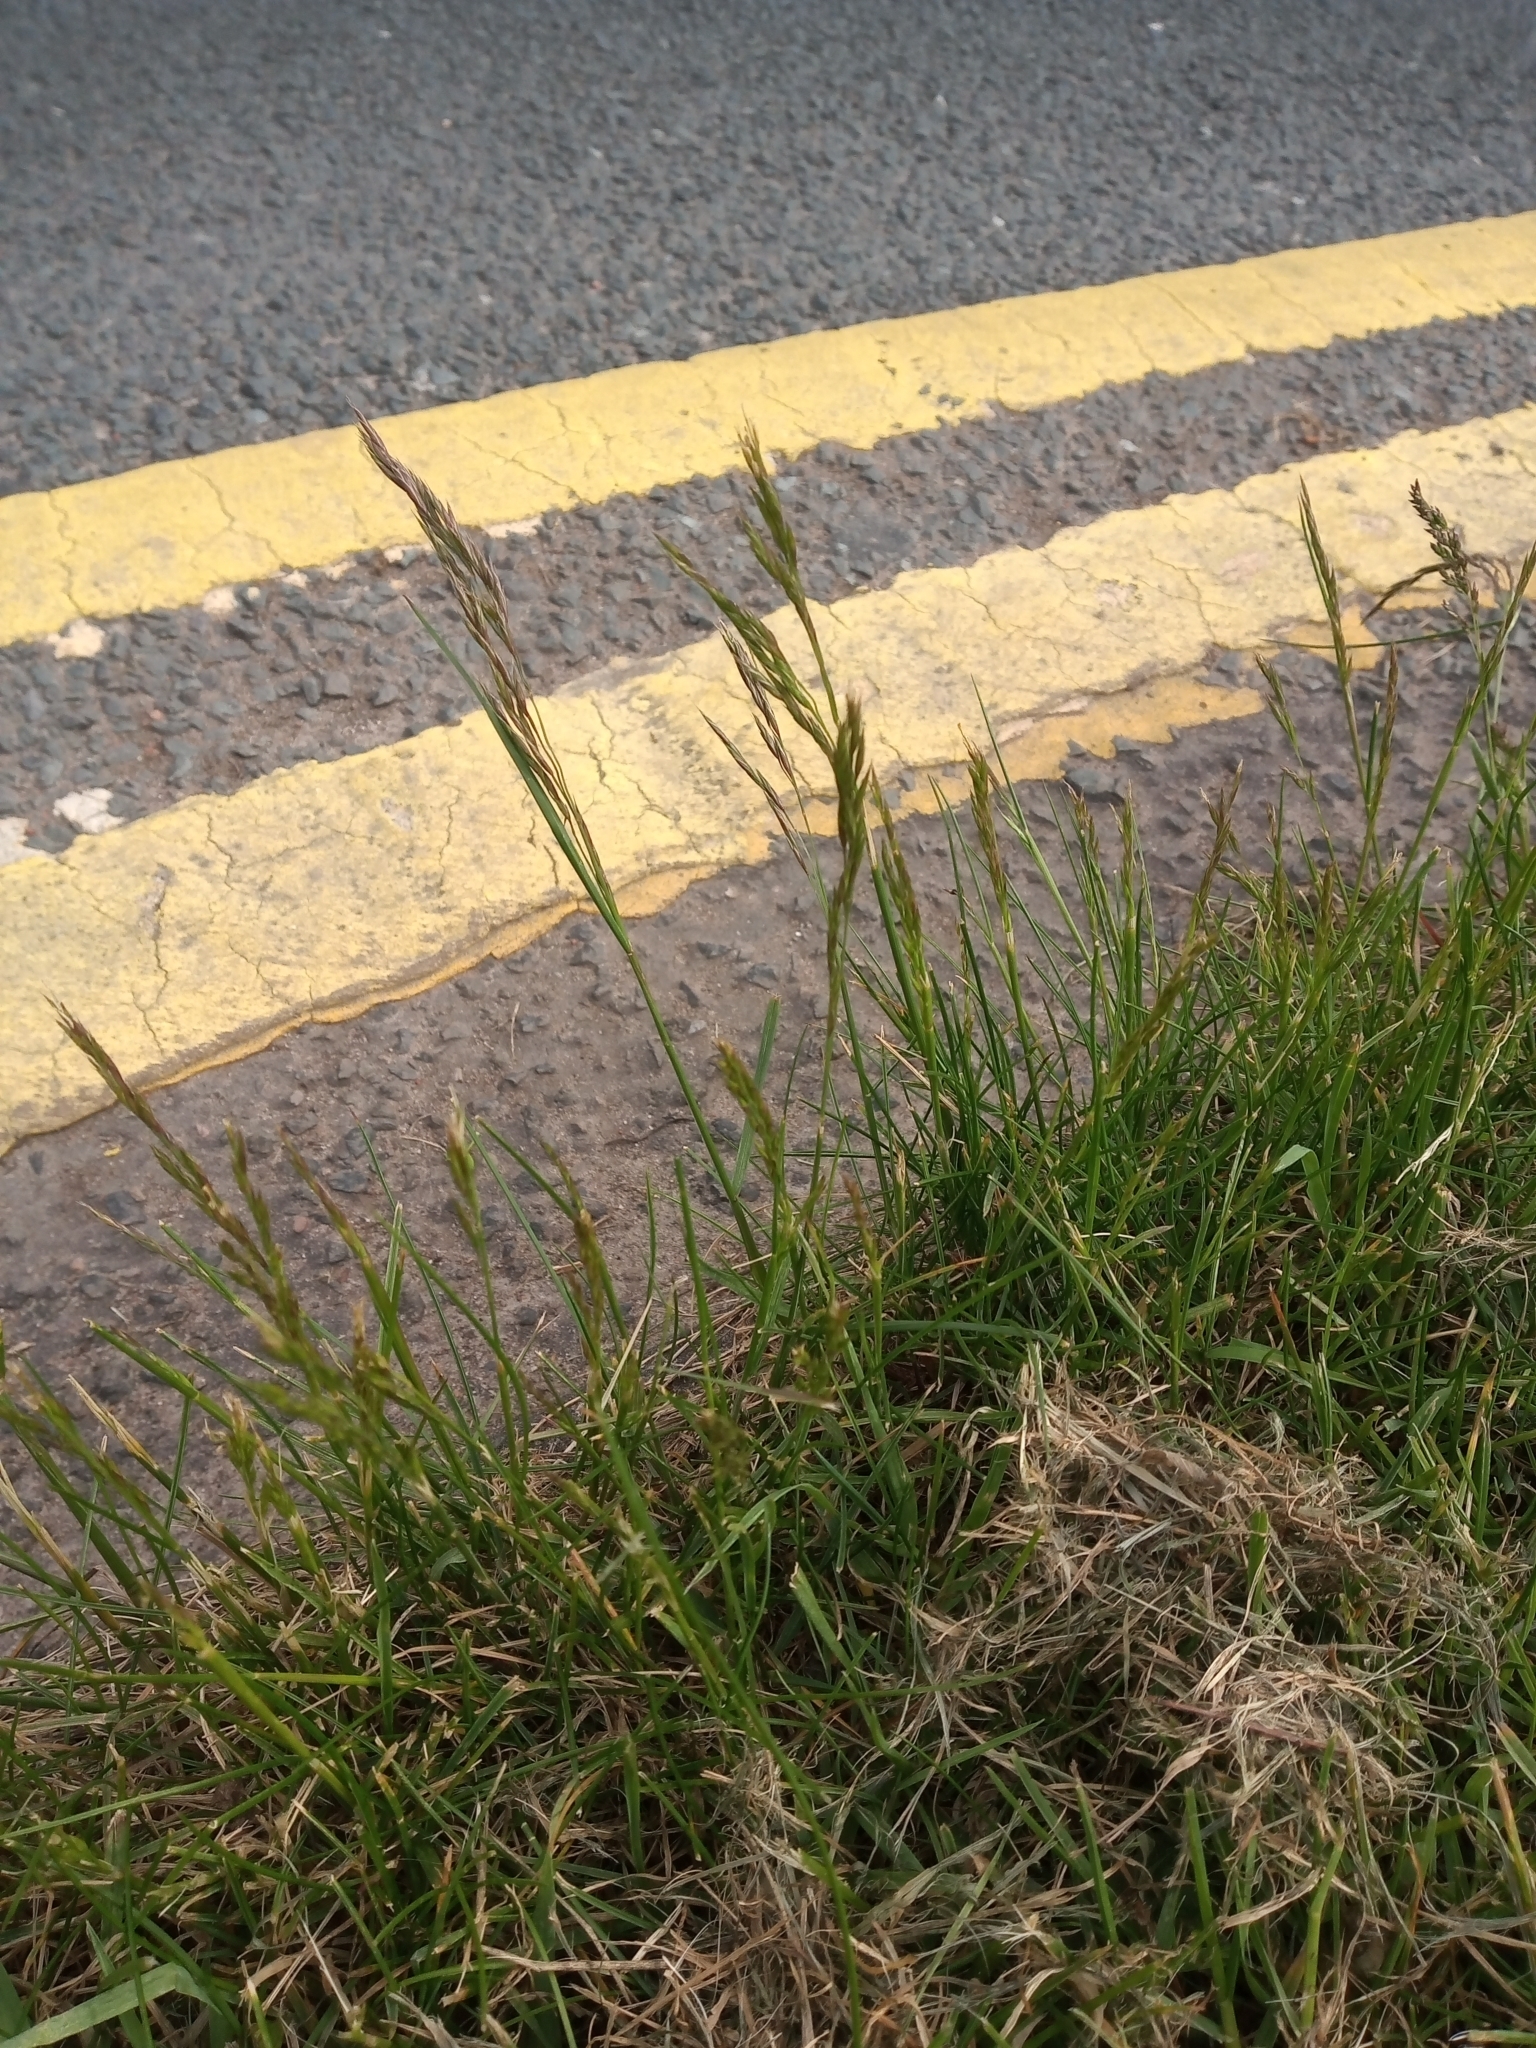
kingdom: Plantae
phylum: Tracheophyta
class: Liliopsida
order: Poales
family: Poaceae
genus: Festuca
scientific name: Festuca rubra
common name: Red fescue
